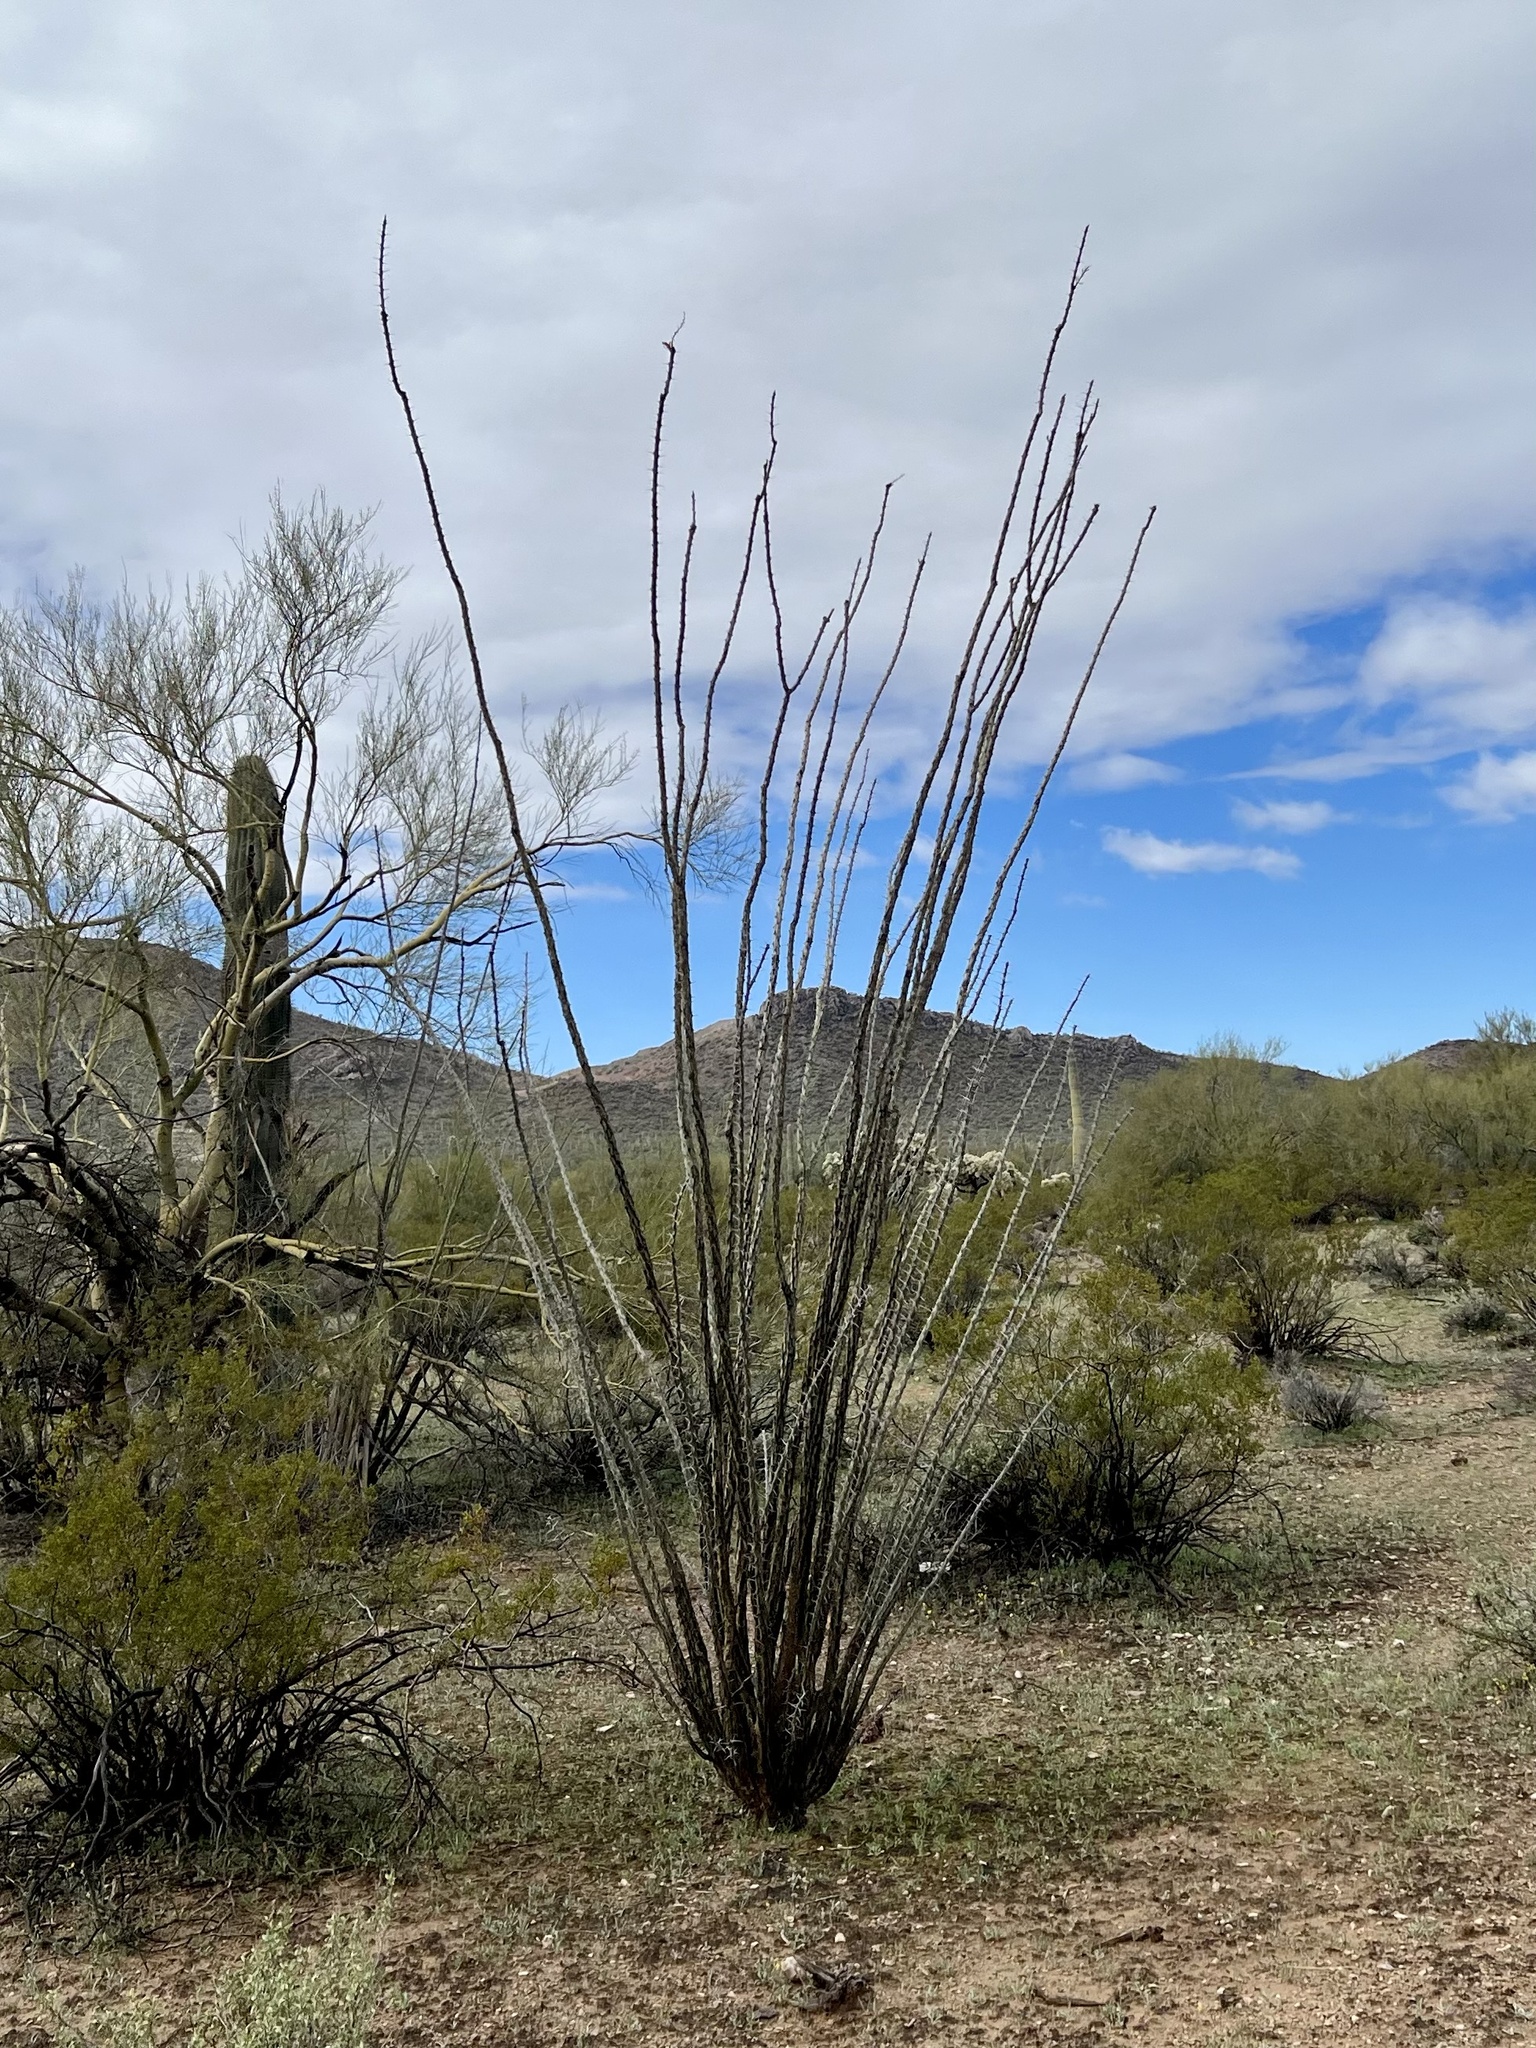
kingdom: Plantae
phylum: Tracheophyta
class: Magnoliopsida
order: Ericales
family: Fouquieriaceae
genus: Fouquieria
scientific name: Fouquieria splendens
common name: Vine-cactus
